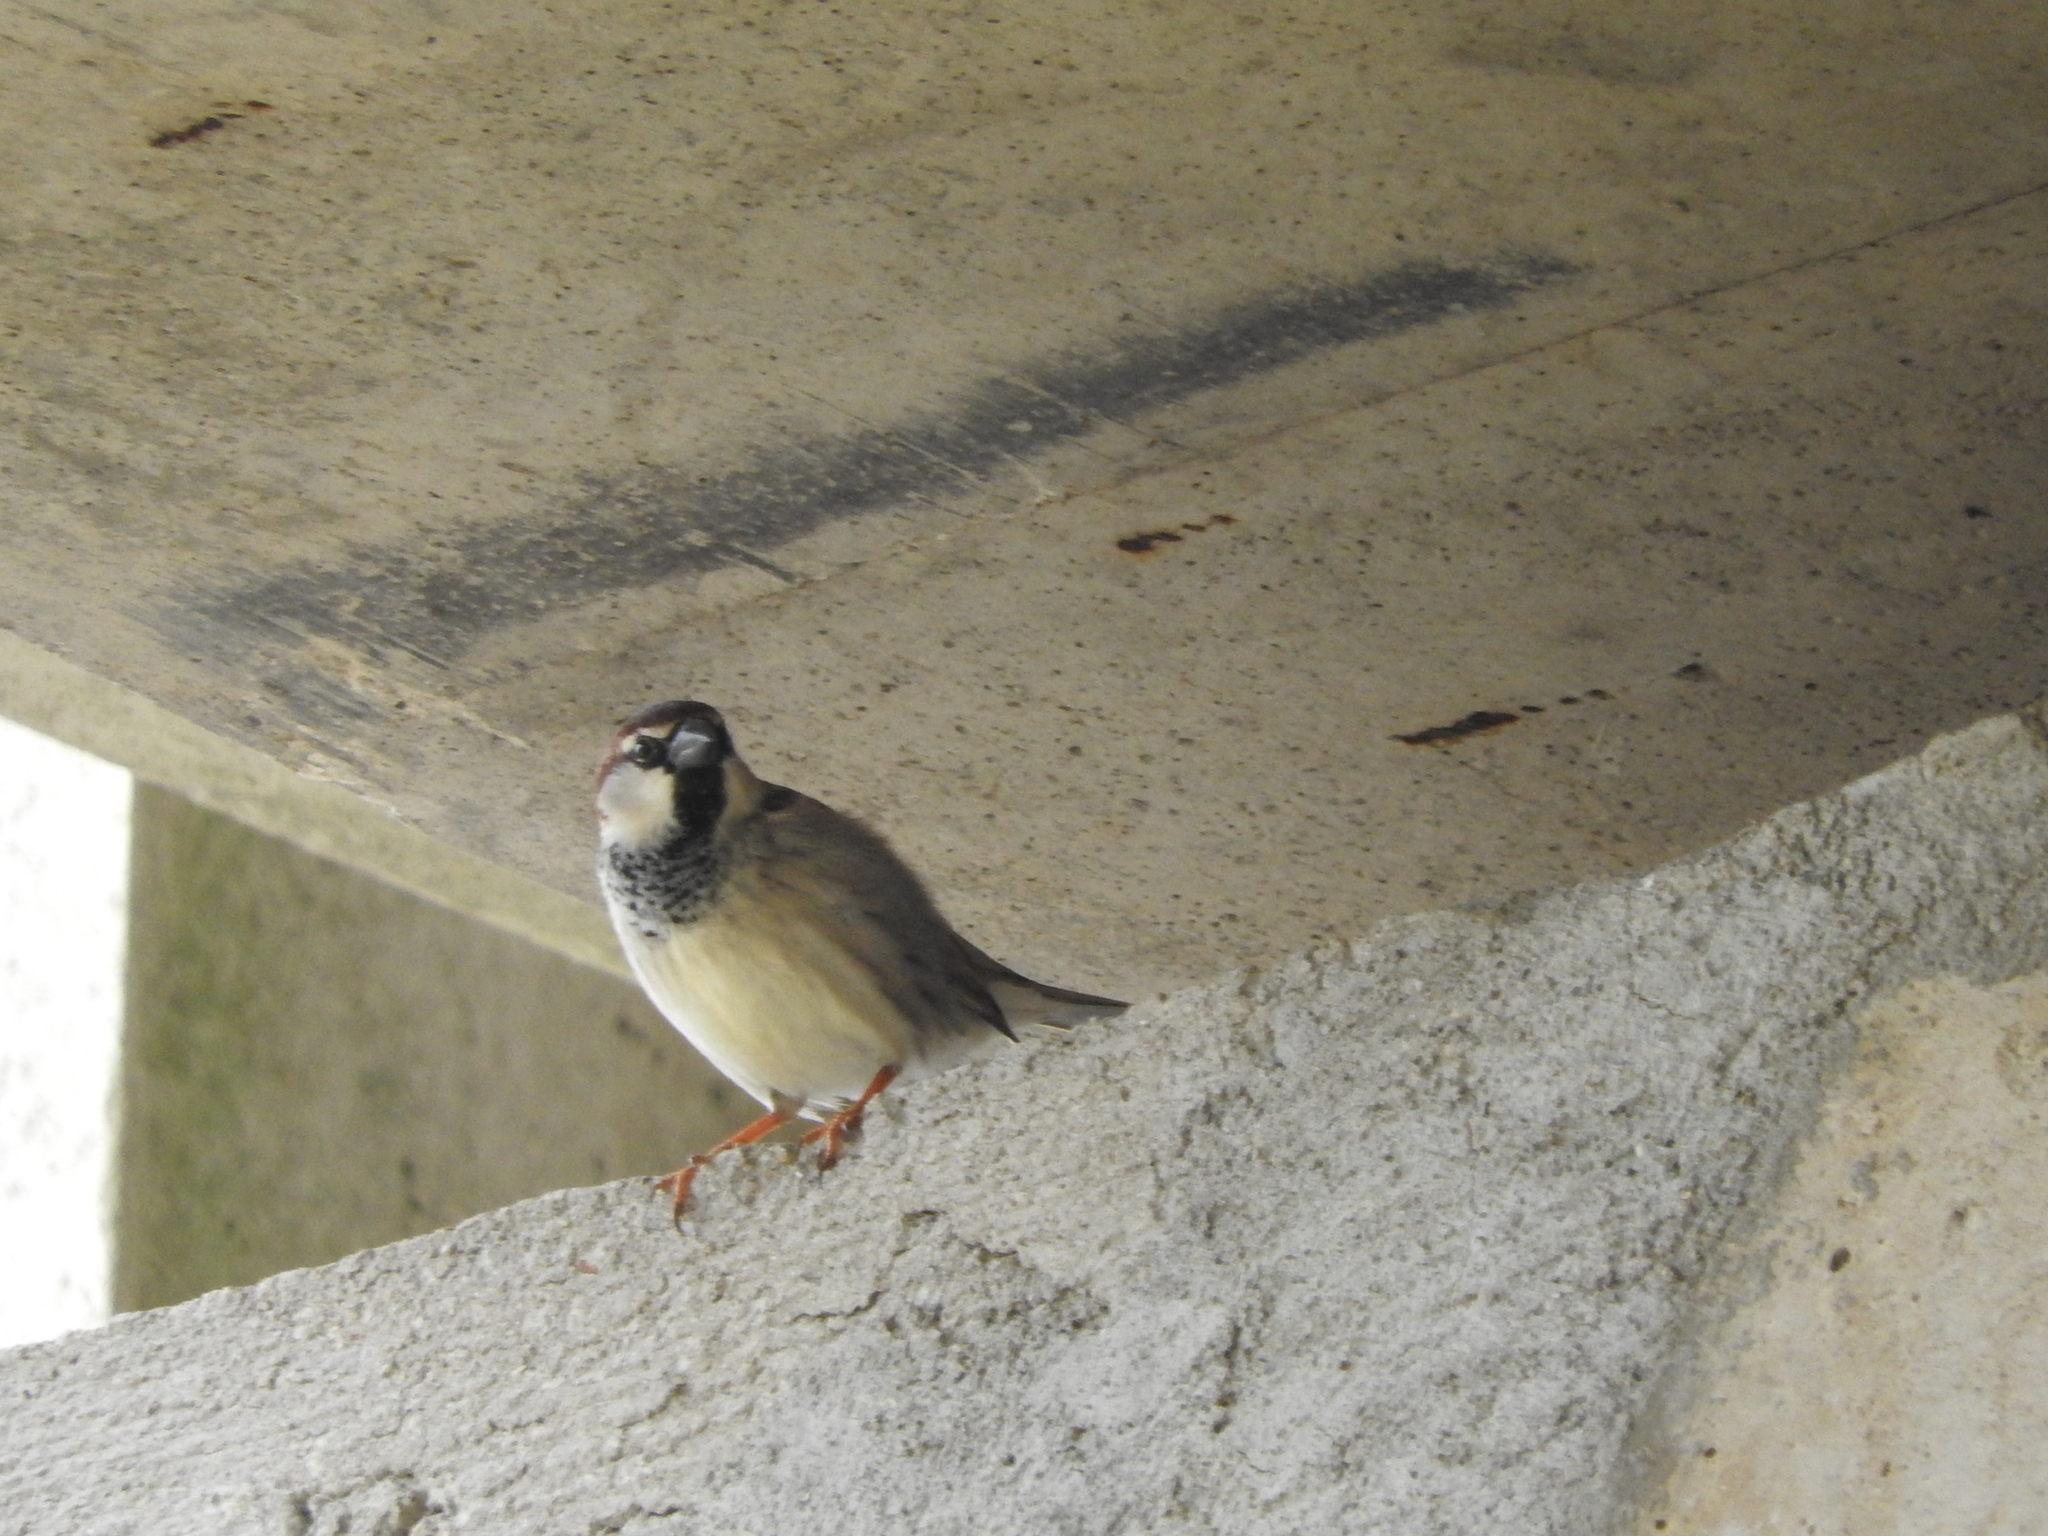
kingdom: Animalia
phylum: Chordata
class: Aves
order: Passeriformes
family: Passeridae
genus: Passer
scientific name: Passer italiae
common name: Italian sparrow
